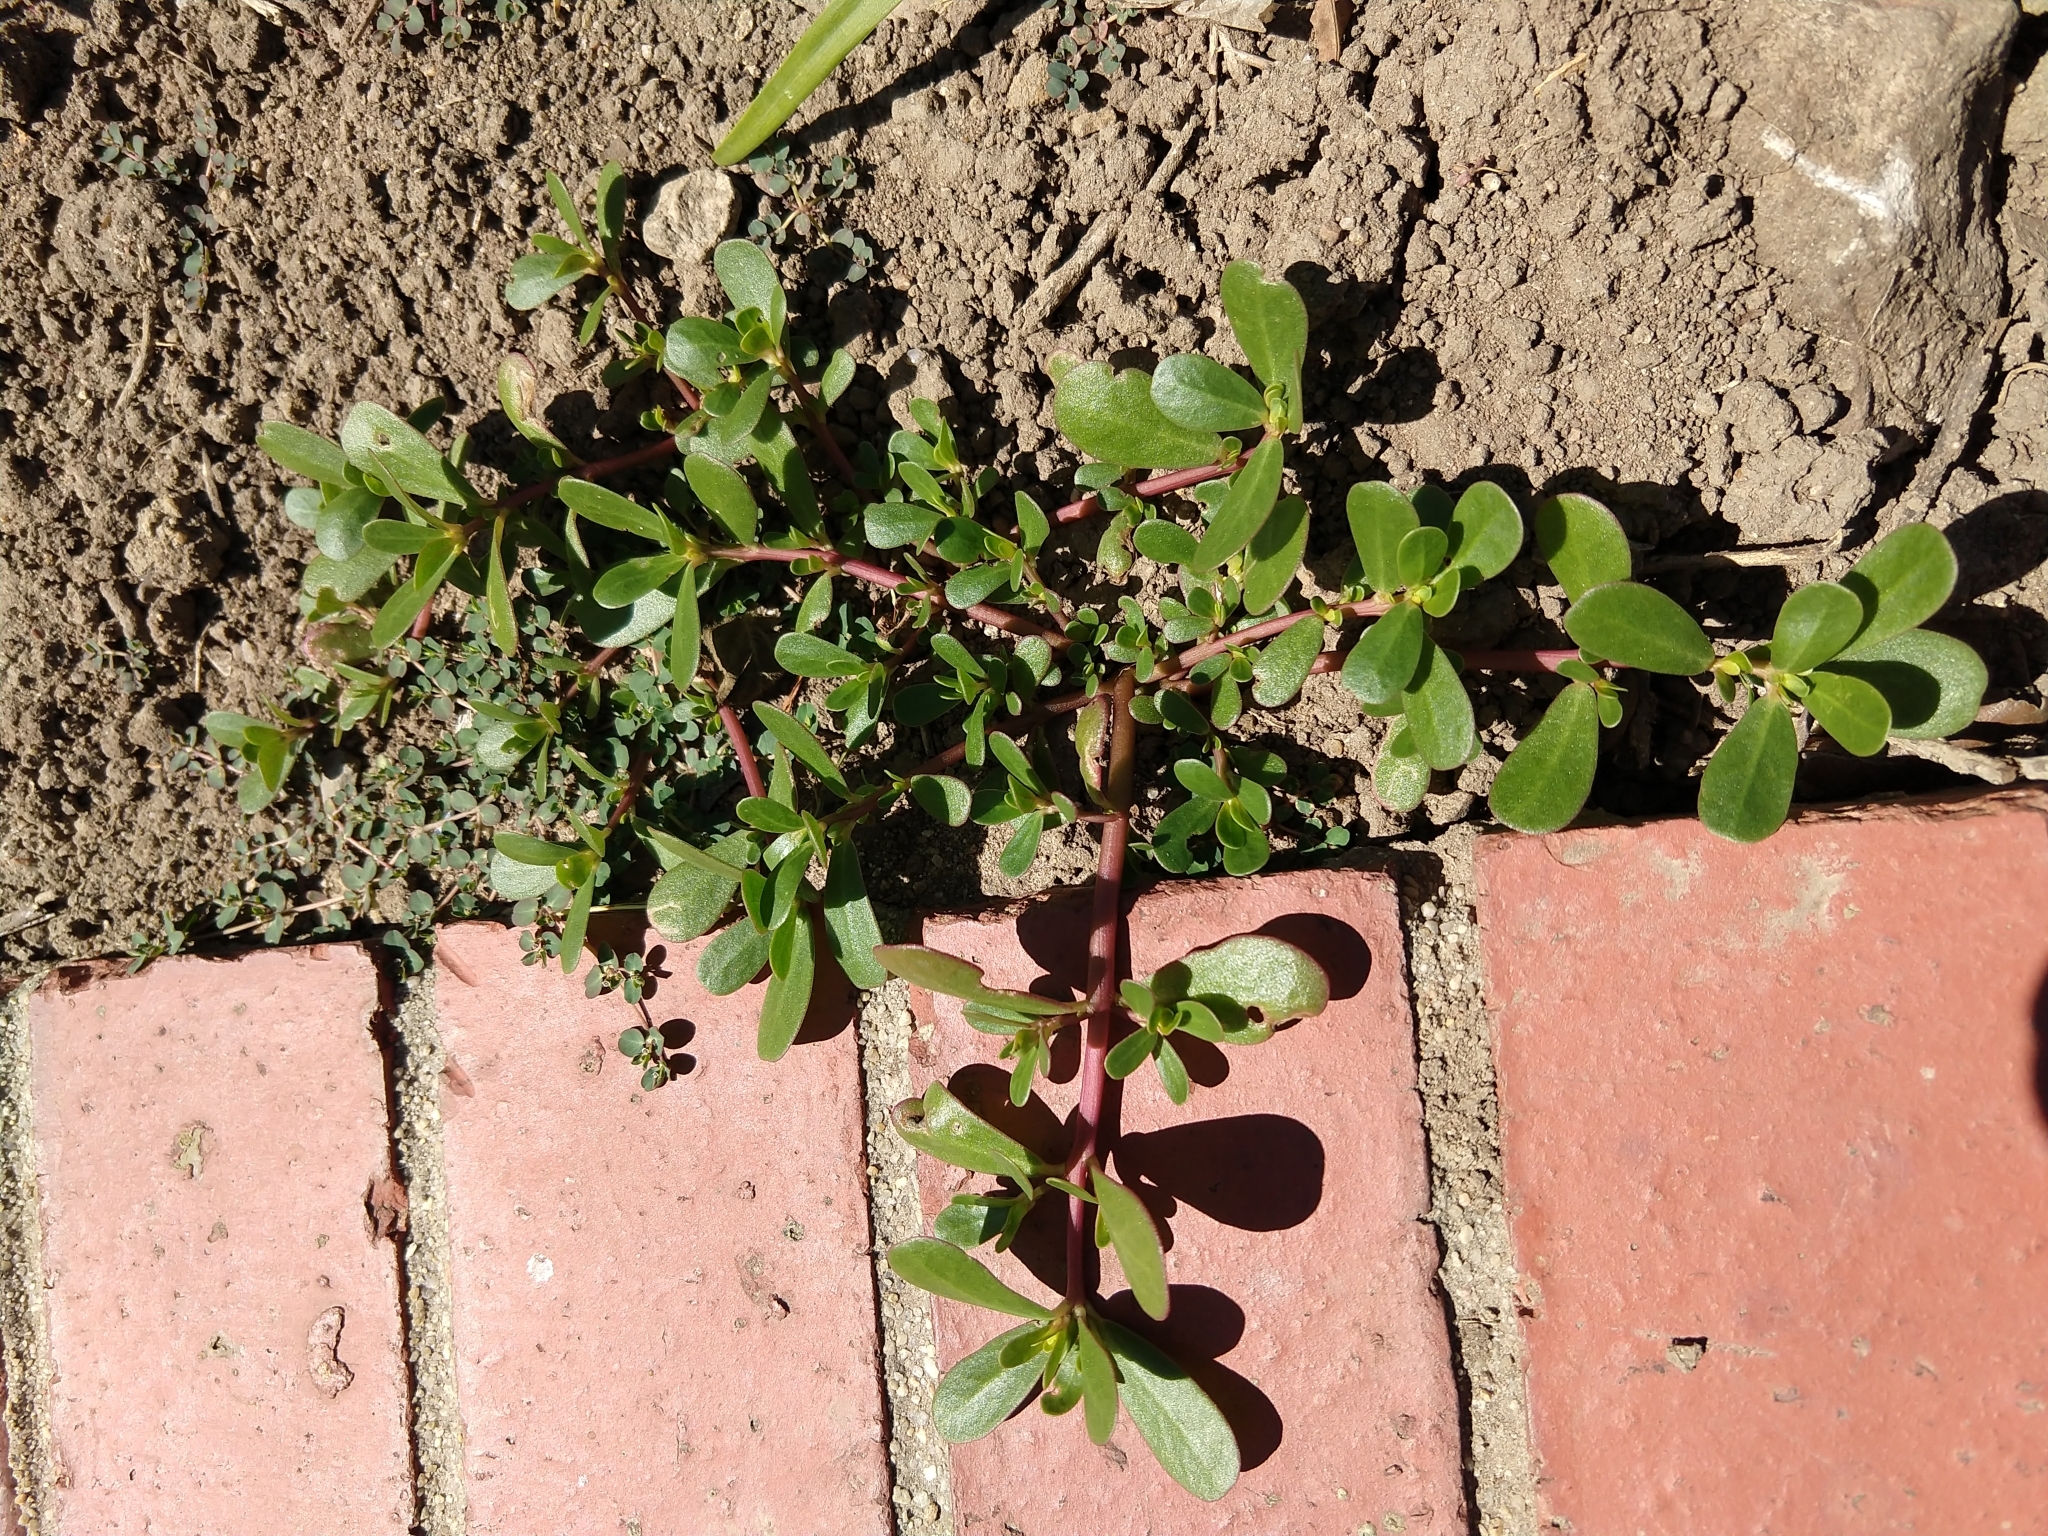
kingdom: Plantae
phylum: Tracheophyta
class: Magnoliopsida
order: Caryophyllales
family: Portulacaceae
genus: Portulaca
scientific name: Portulaca oleracea
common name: Common purslane
